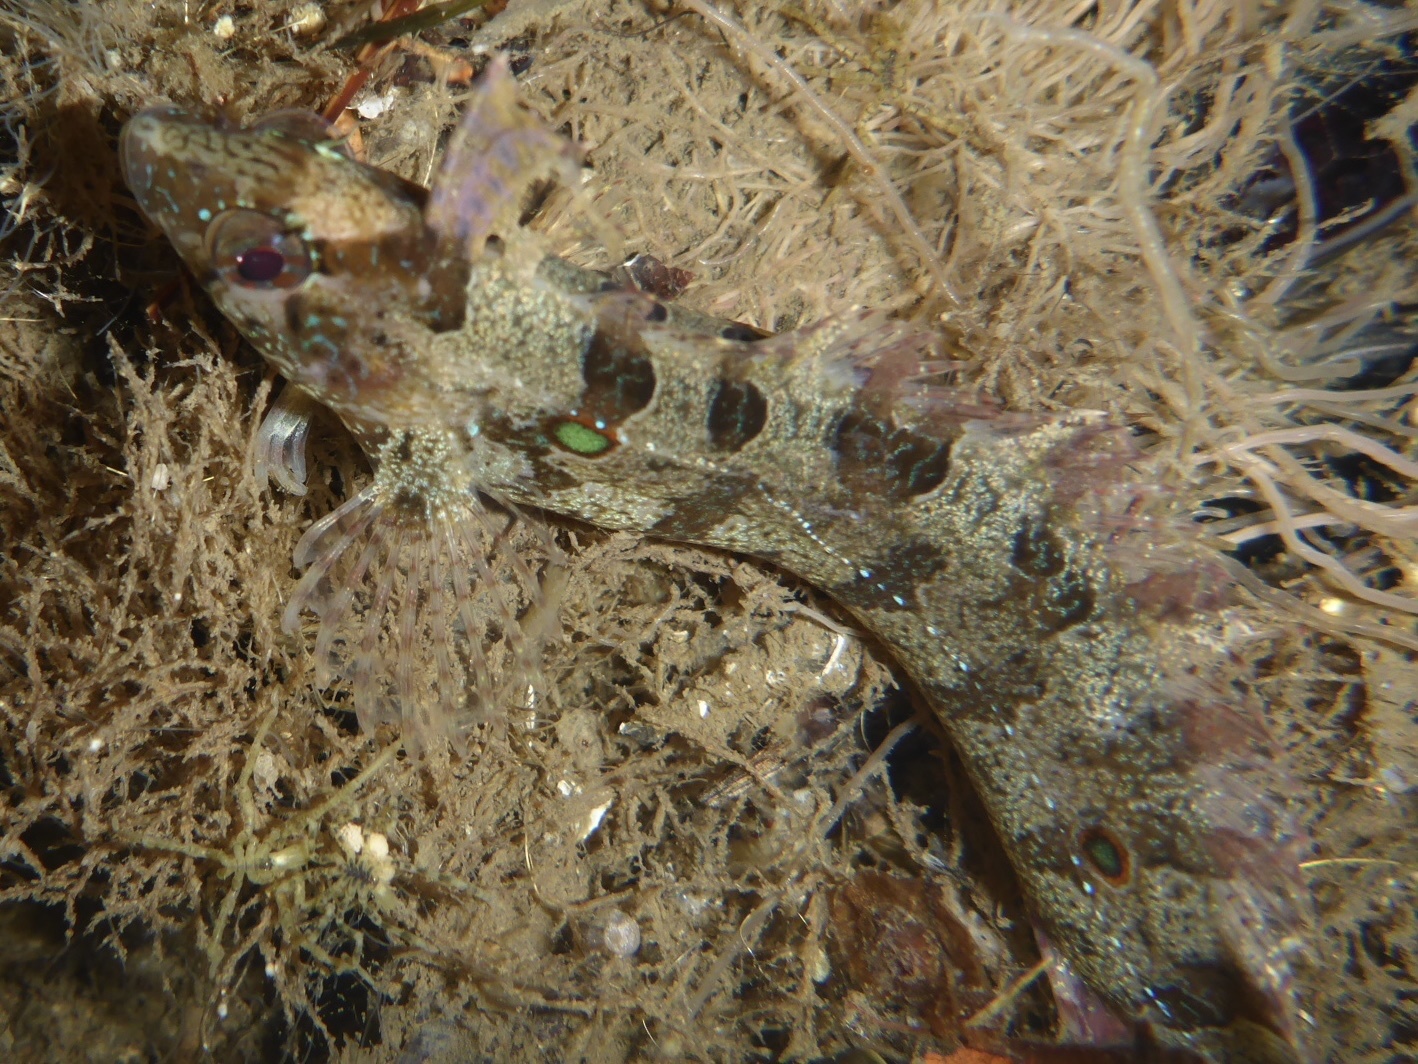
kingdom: Animalia
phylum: Chordata
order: Perciformes
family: Clinidae
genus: Gibbonsia
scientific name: Gibbonsia elegans
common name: Spotted kelpfish
